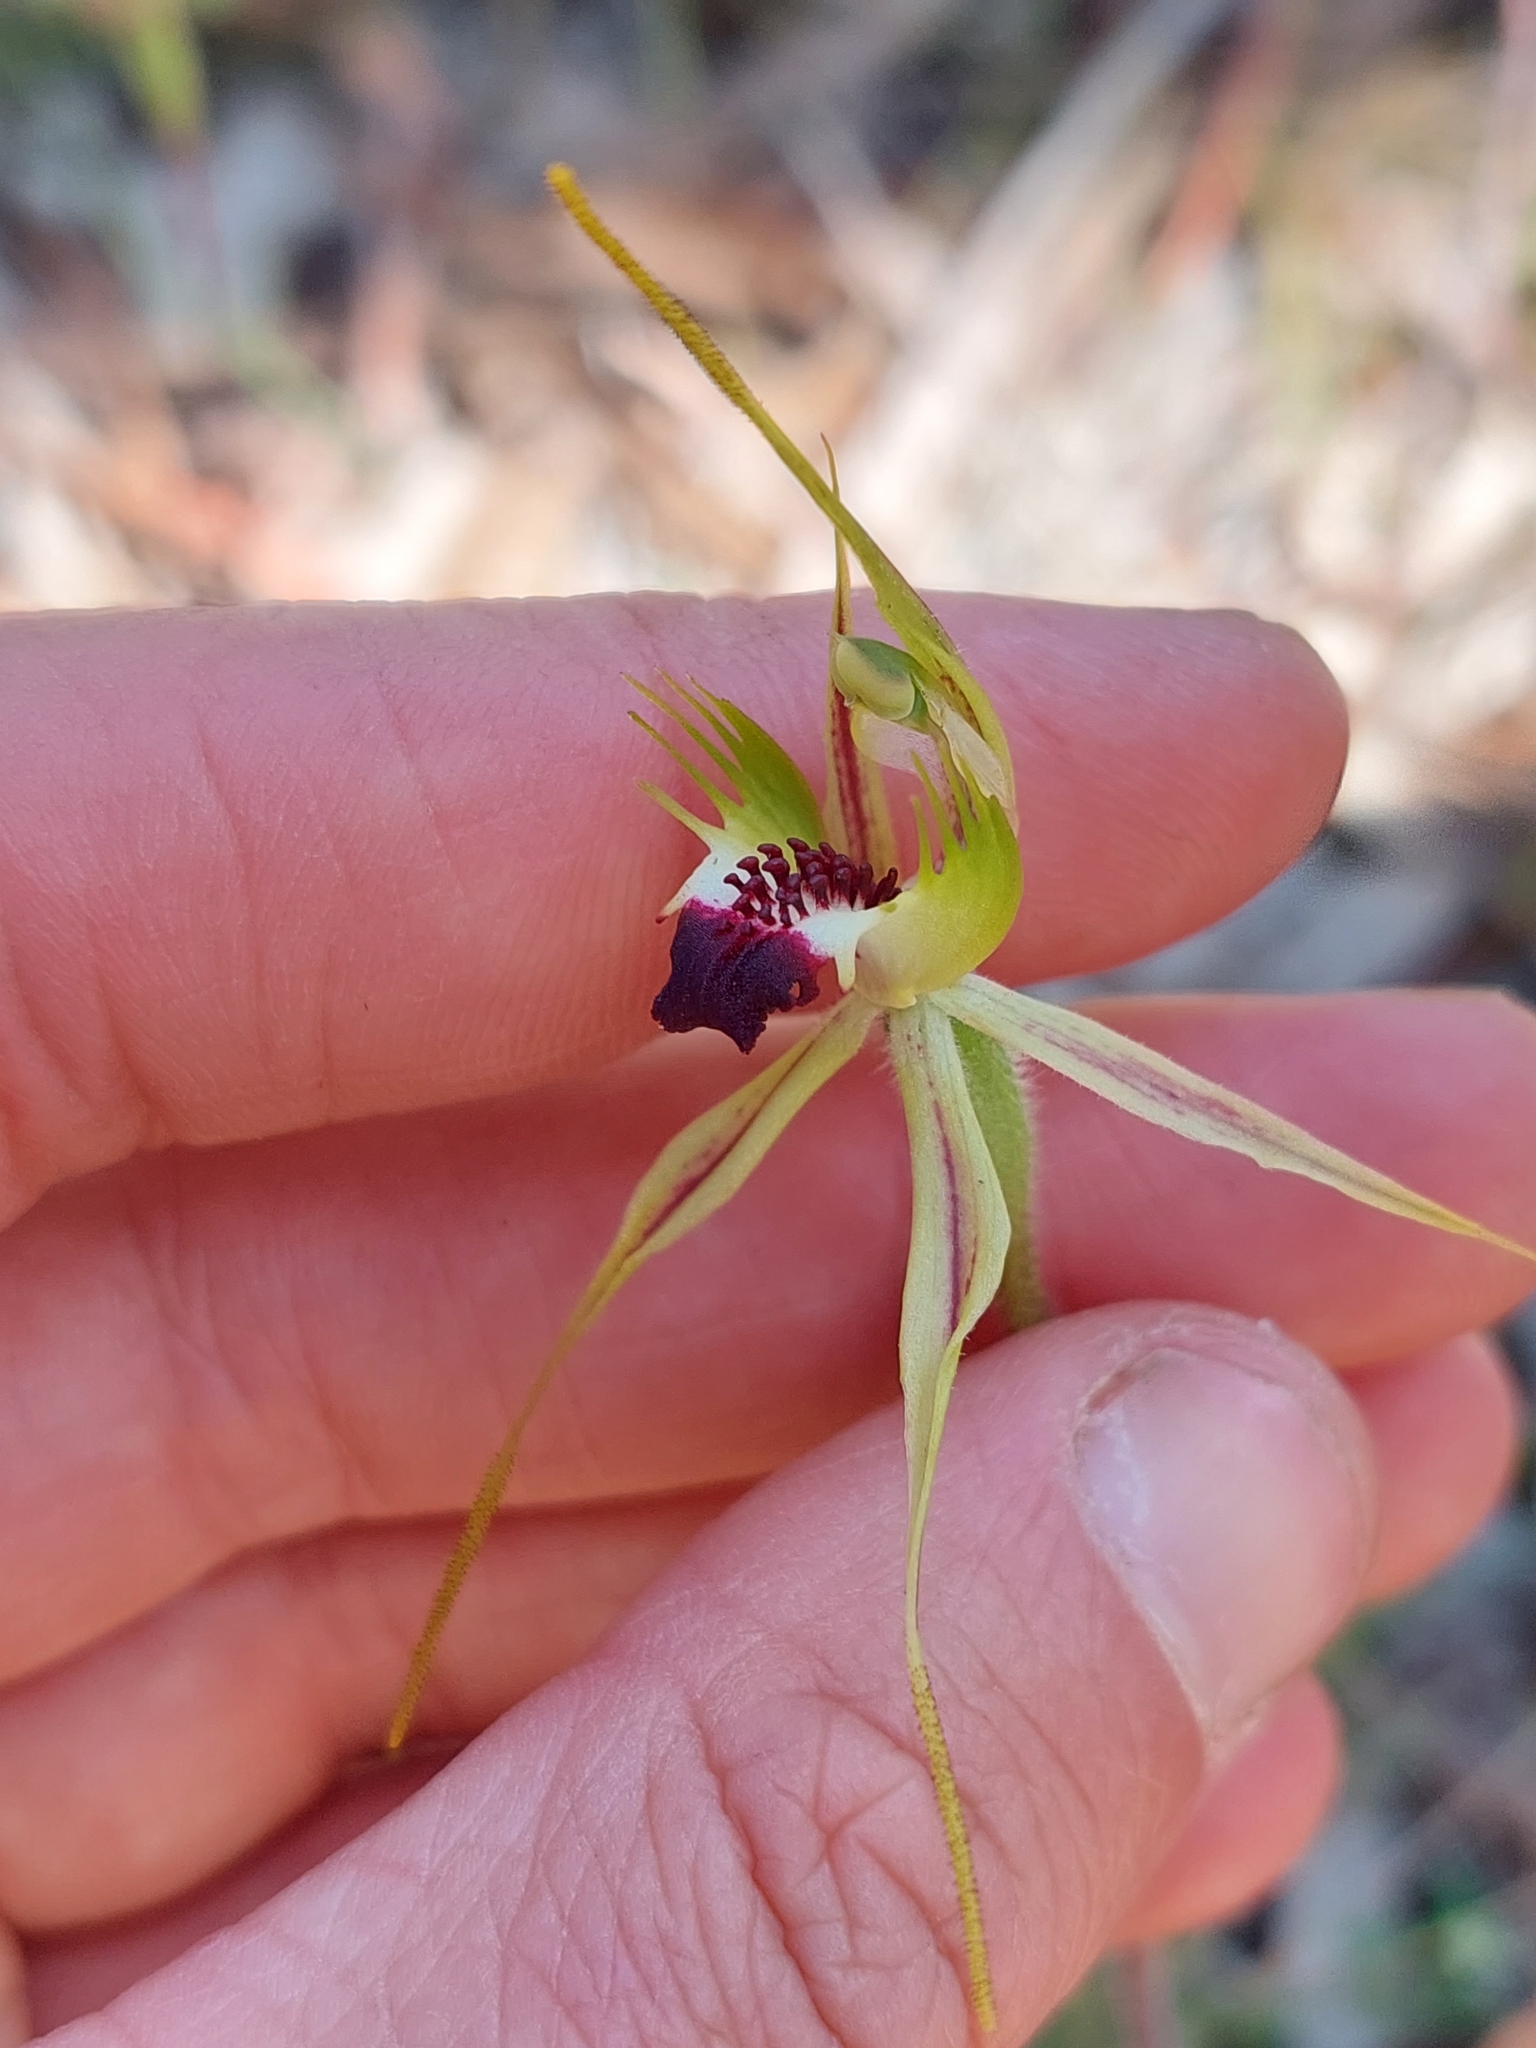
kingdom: Plantae
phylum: Tracheophyta
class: Liliopsida
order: Asparagales
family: Orchidaceae
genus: Caladenia
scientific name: Caladenia parva
